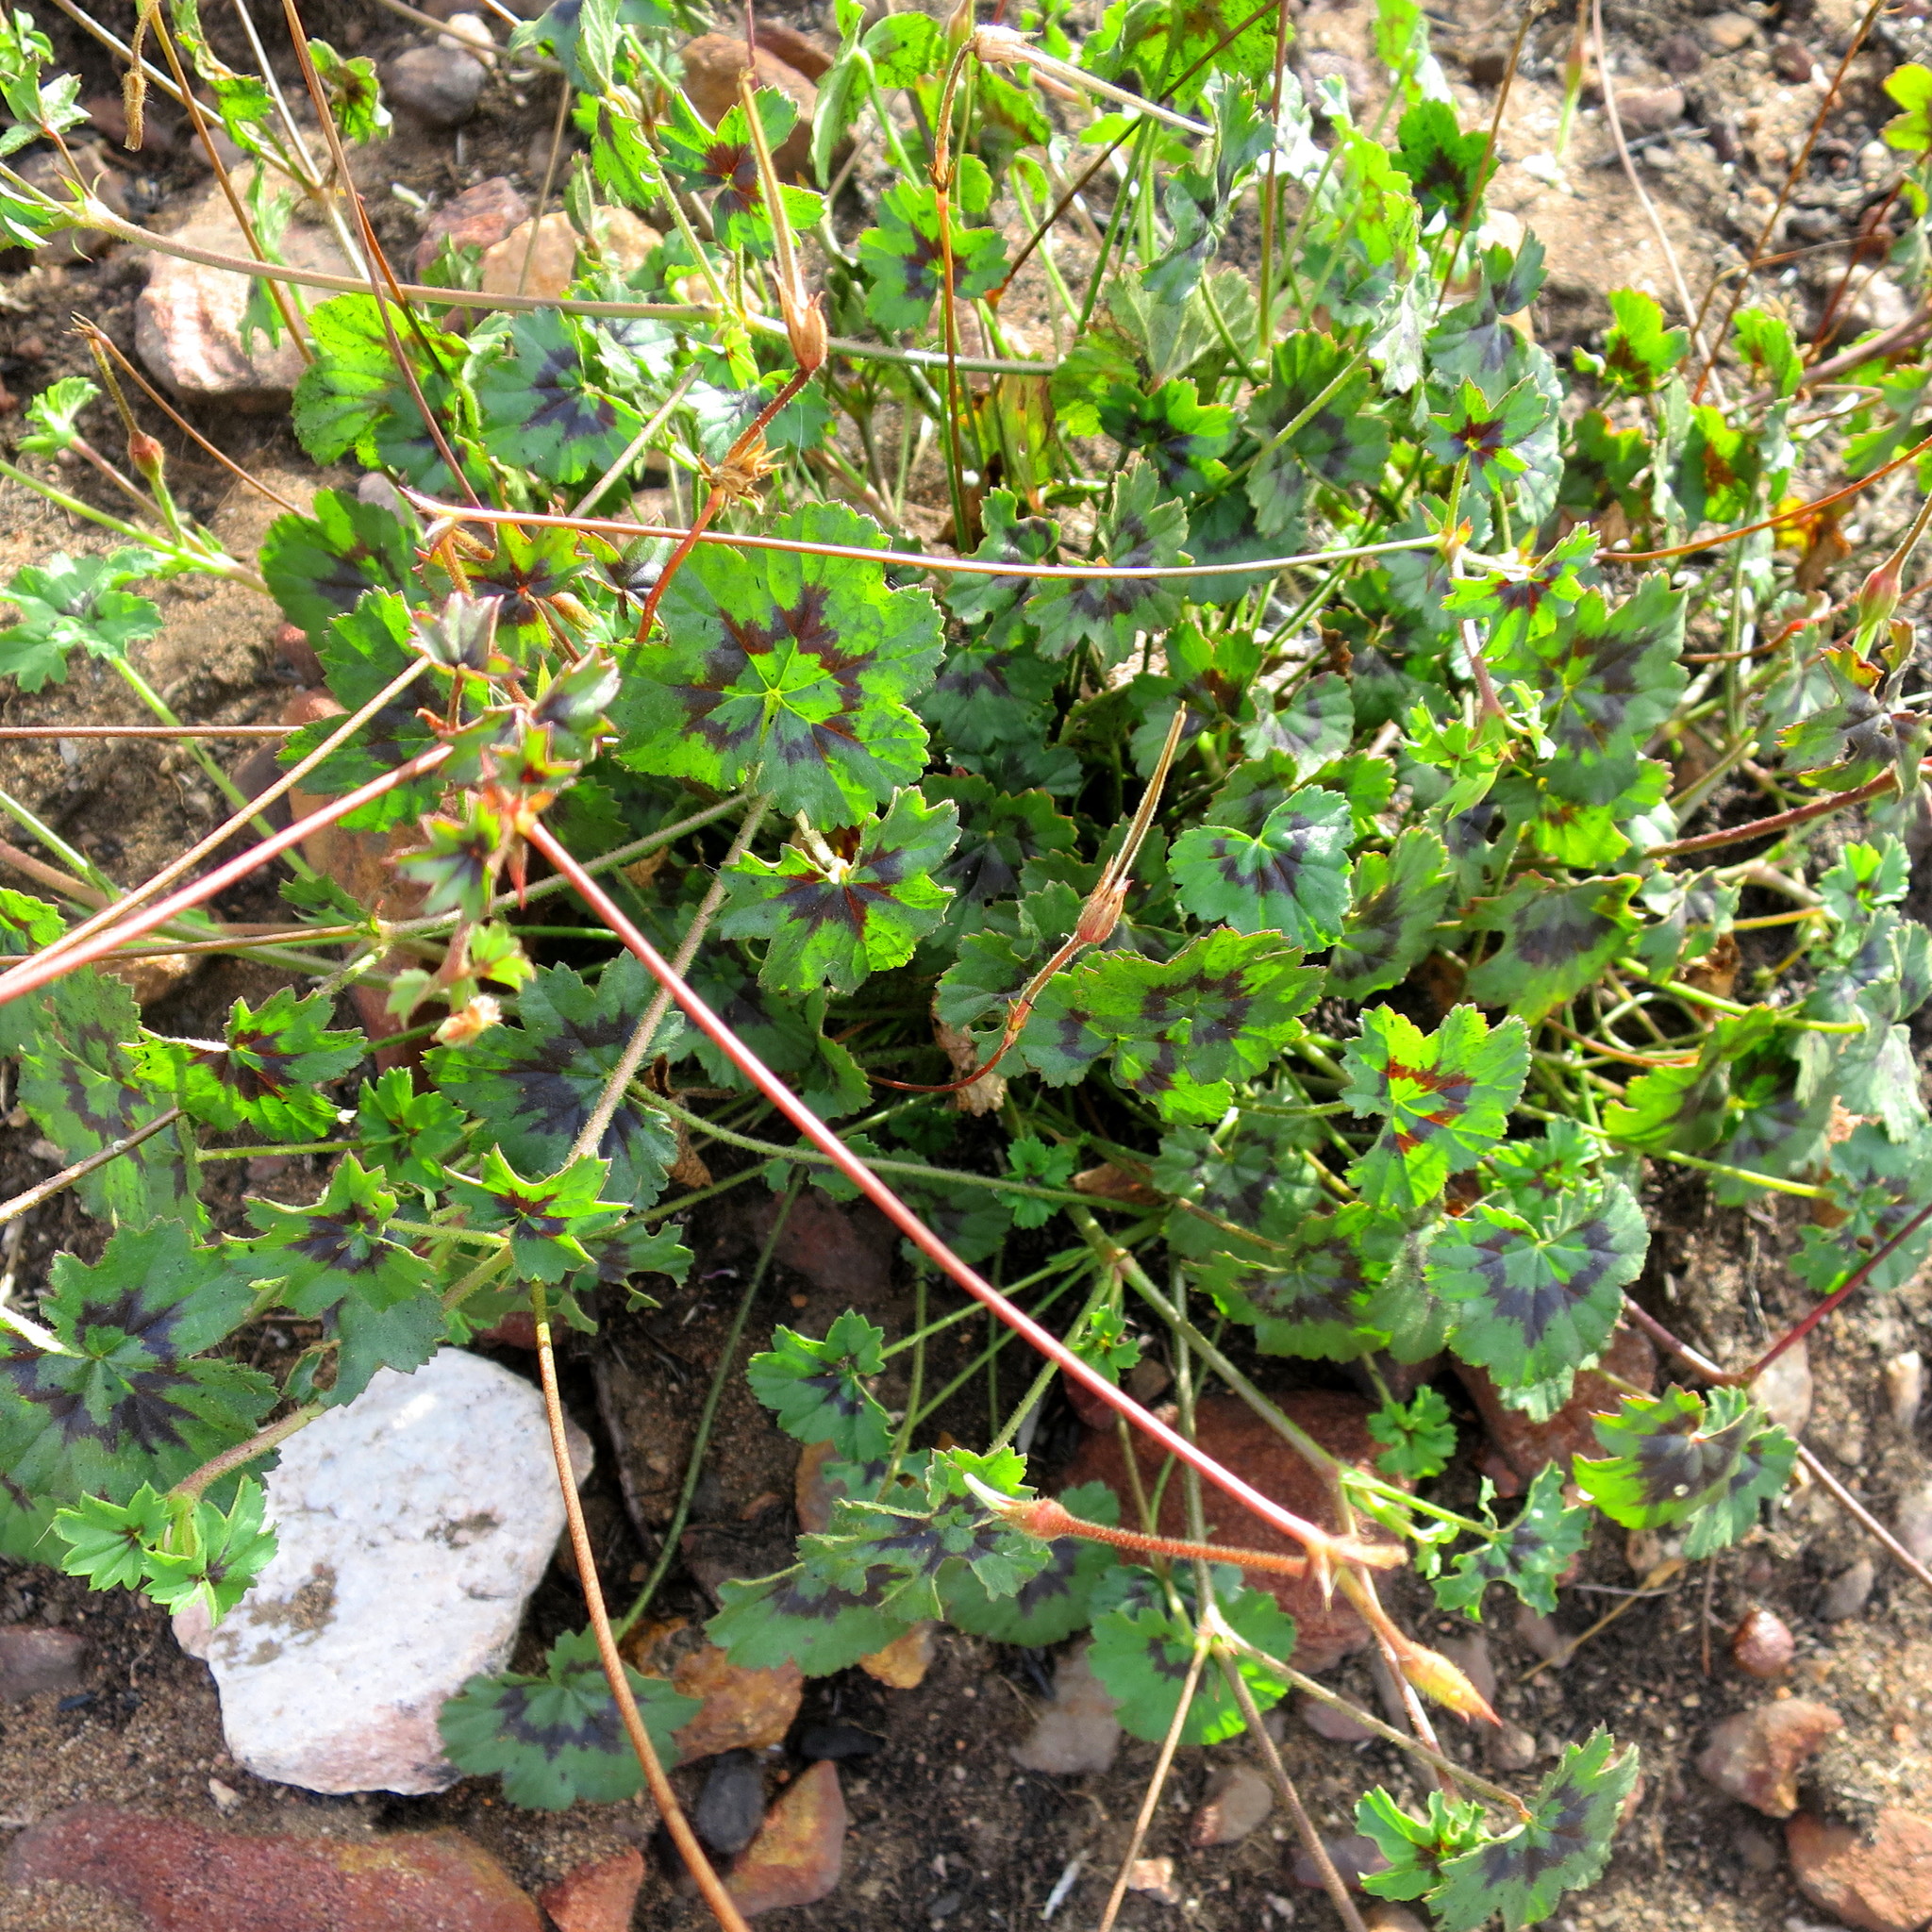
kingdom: Plantae
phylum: Tracheophyta
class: Magnoliopsida
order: Geraniales
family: Geraniaceae
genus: Pelargonium
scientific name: Pelargonium elongatum
